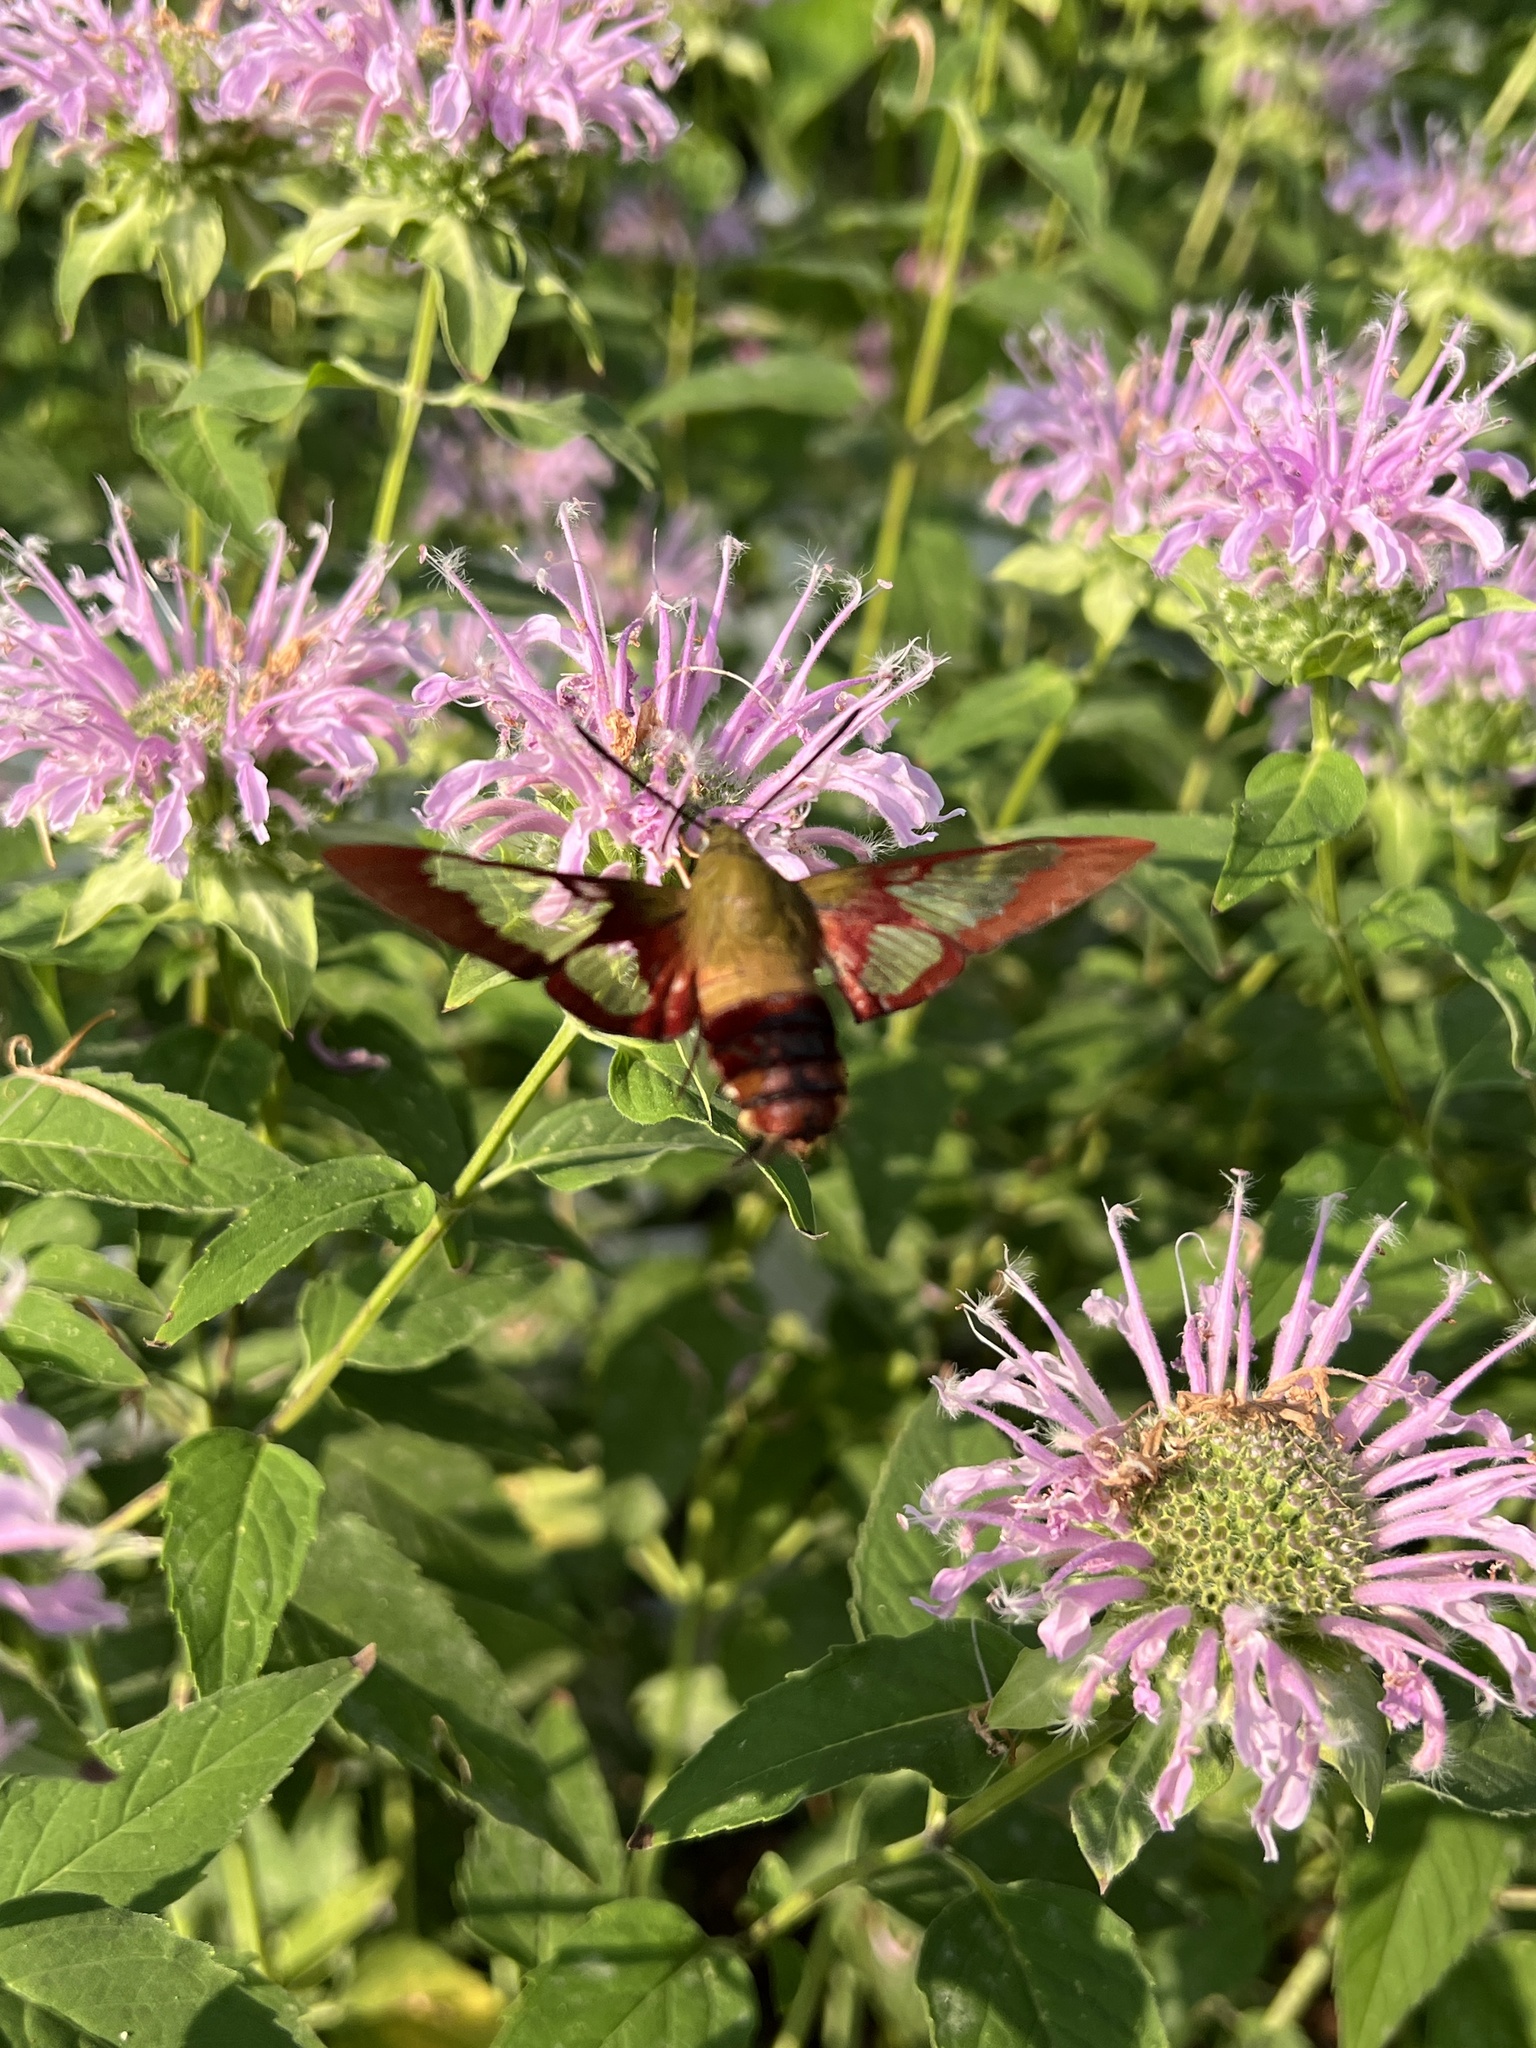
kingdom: Animalia
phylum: Arthropoda
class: Insecta
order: Lepidoptera
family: Sphingidae
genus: Hemaris
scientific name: Hemaris thysbe
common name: Common clear-wing
